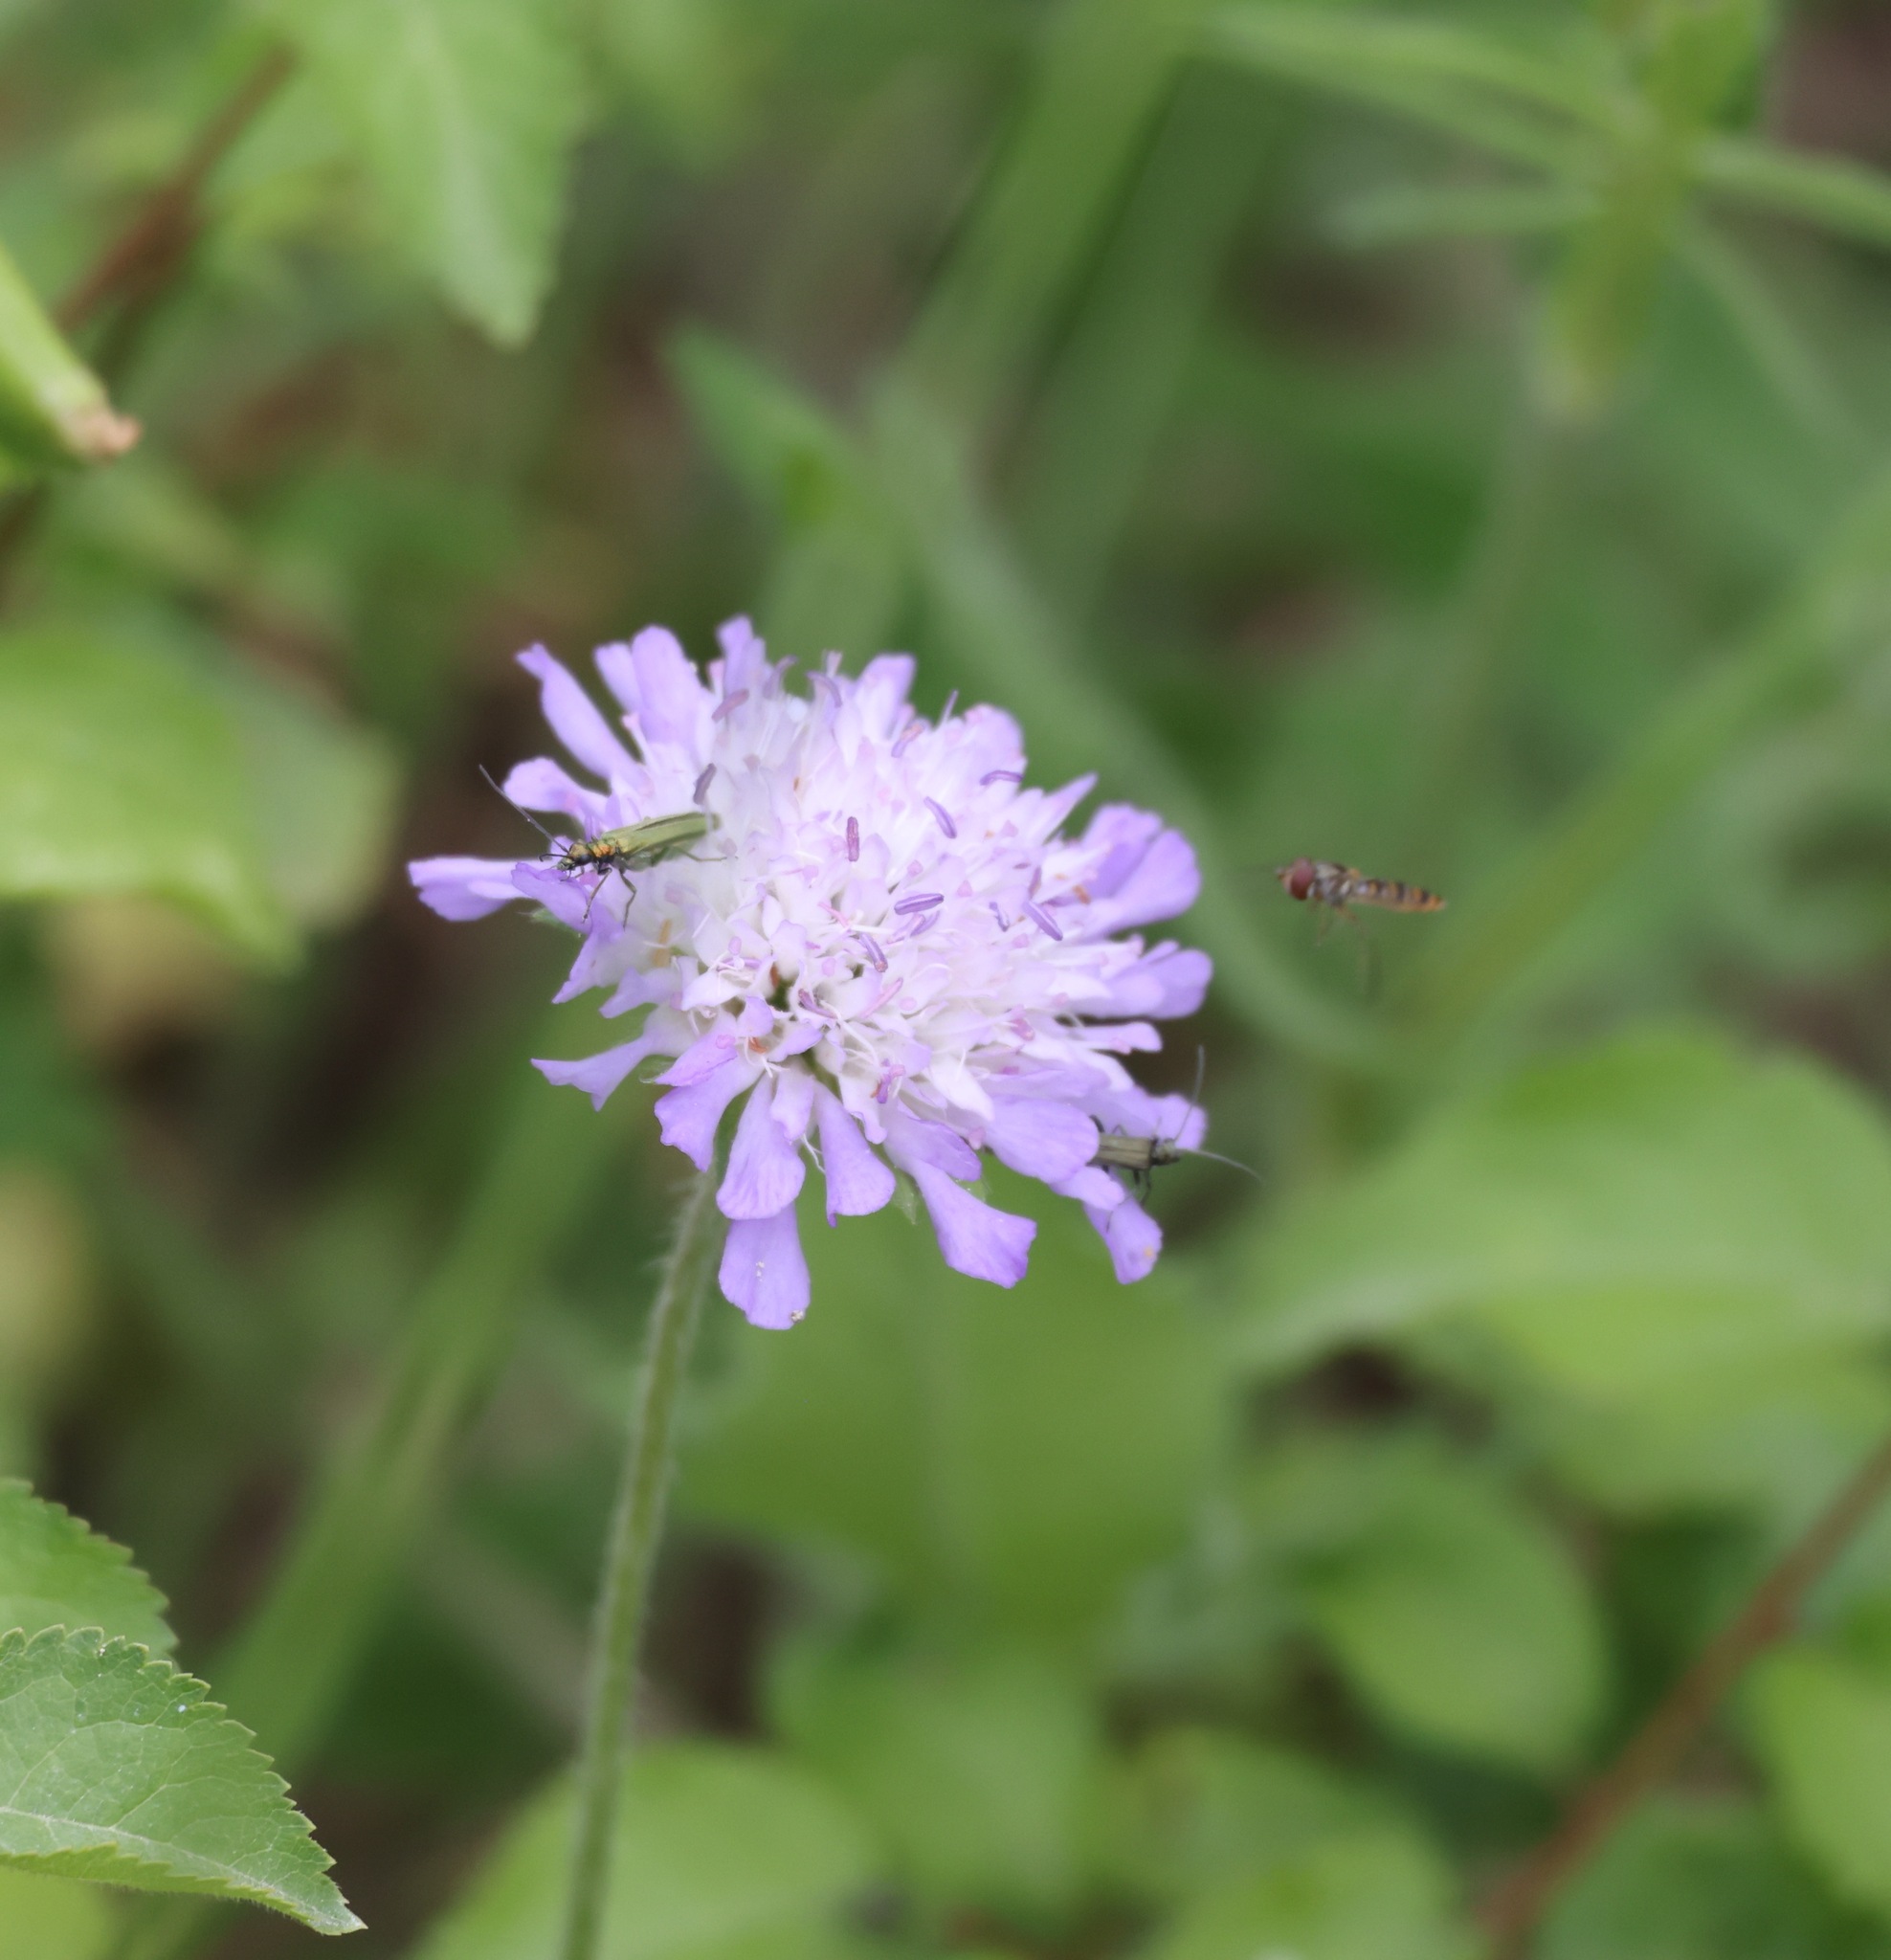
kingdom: Plantae
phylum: Tracheophyta
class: Magnoliopsida
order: Dipsacales
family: Caprifoliaceae
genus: Knautia
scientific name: Knautia arvensis
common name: Field scabiosa
